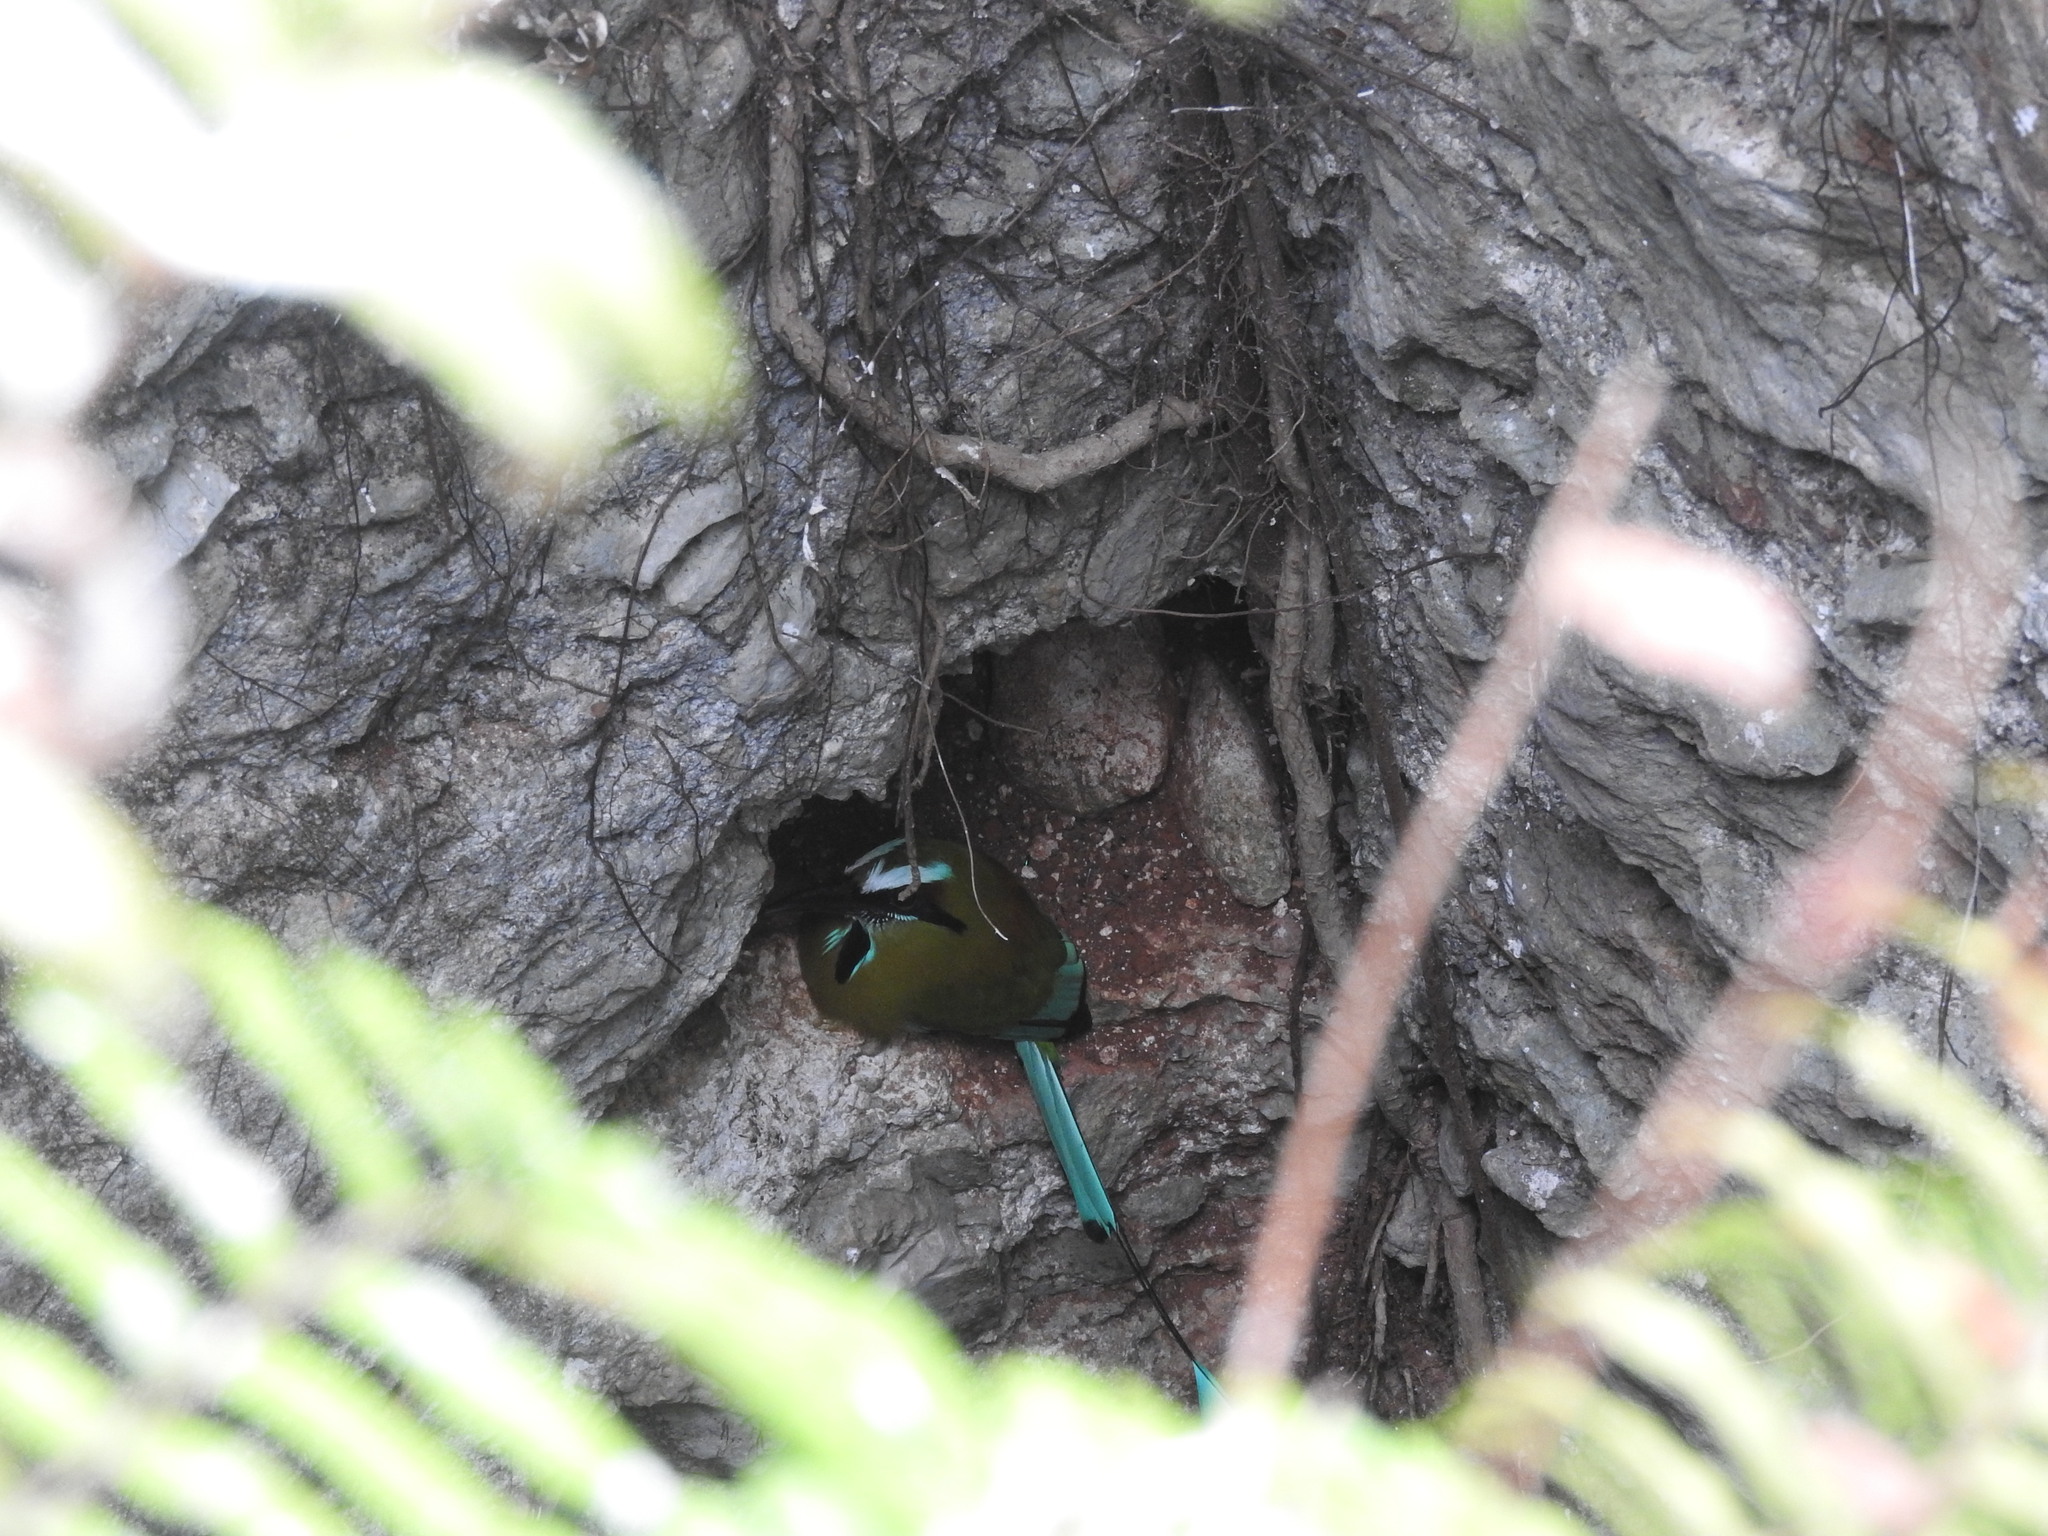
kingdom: Animalia
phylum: Chordata
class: Aves
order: Coraciiformes
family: Momotidae
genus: Eumomota
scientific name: Eumomota superciliosa
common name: Turquoise-browed motmot
